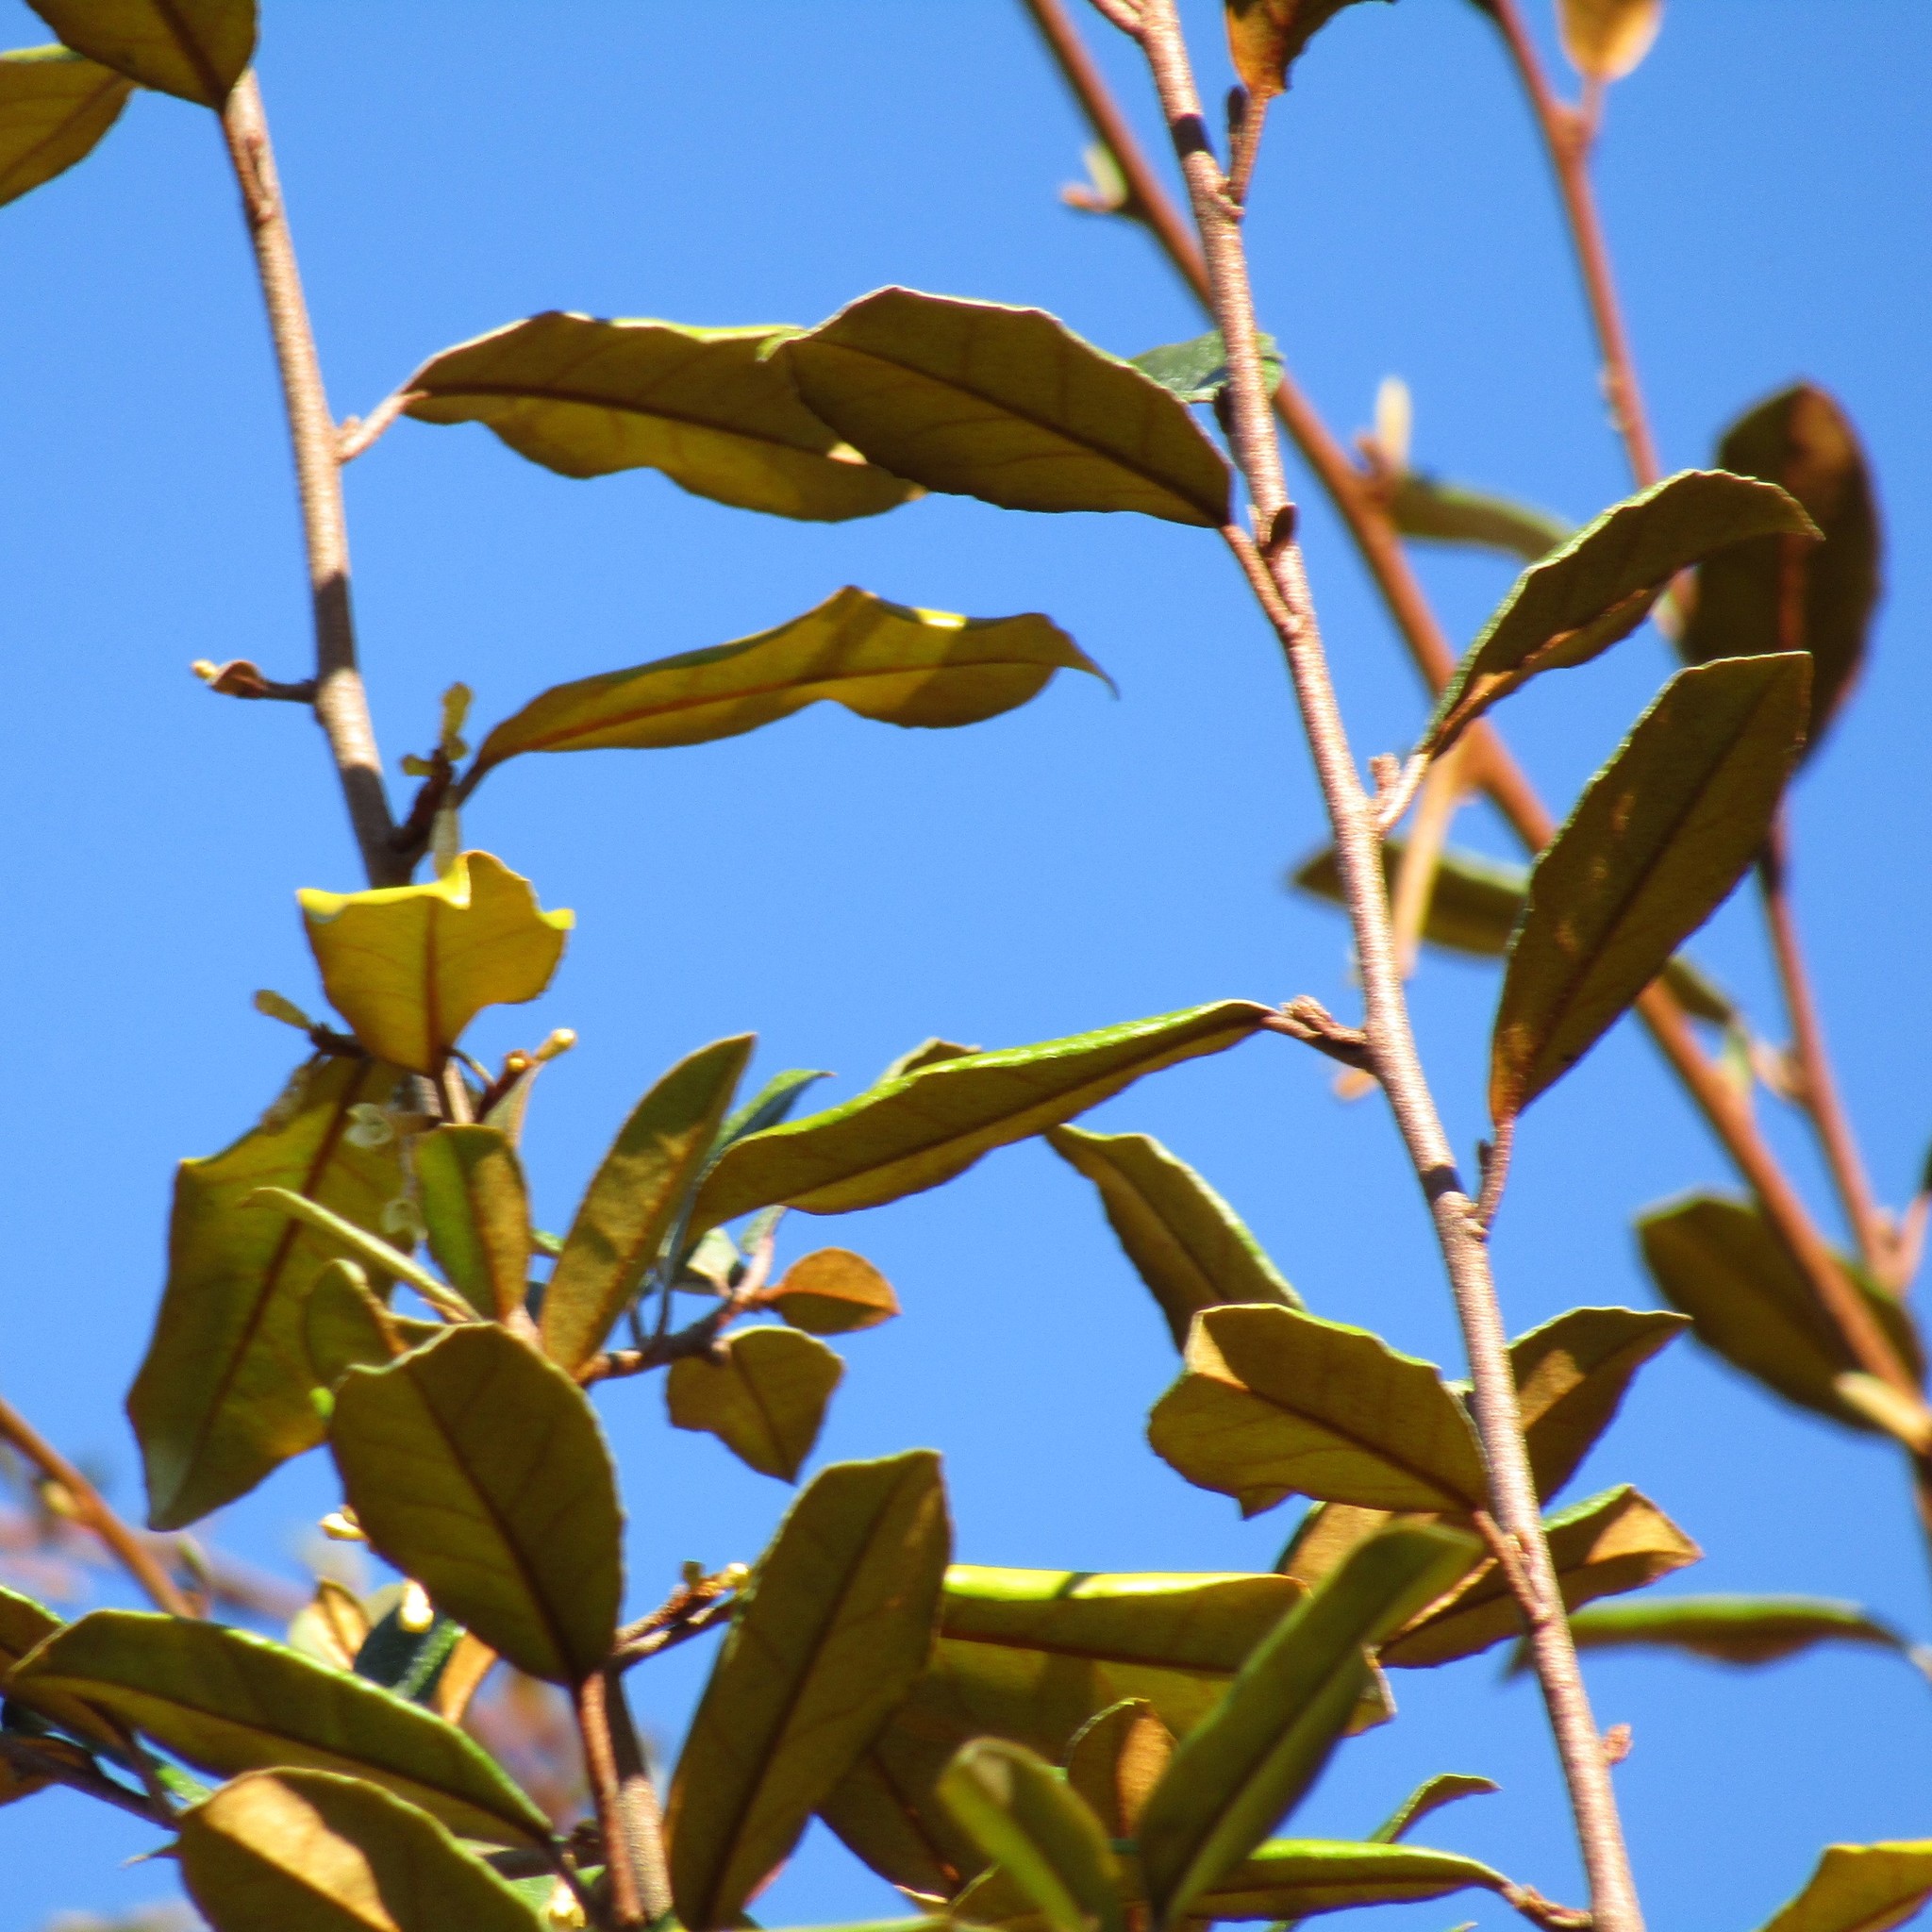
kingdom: Plantae
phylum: Tracheophyta
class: Magnoliopsida
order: Rosales
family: Elaeagnaceae
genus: Elaeagnus
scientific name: Elaeagnus reflexa
